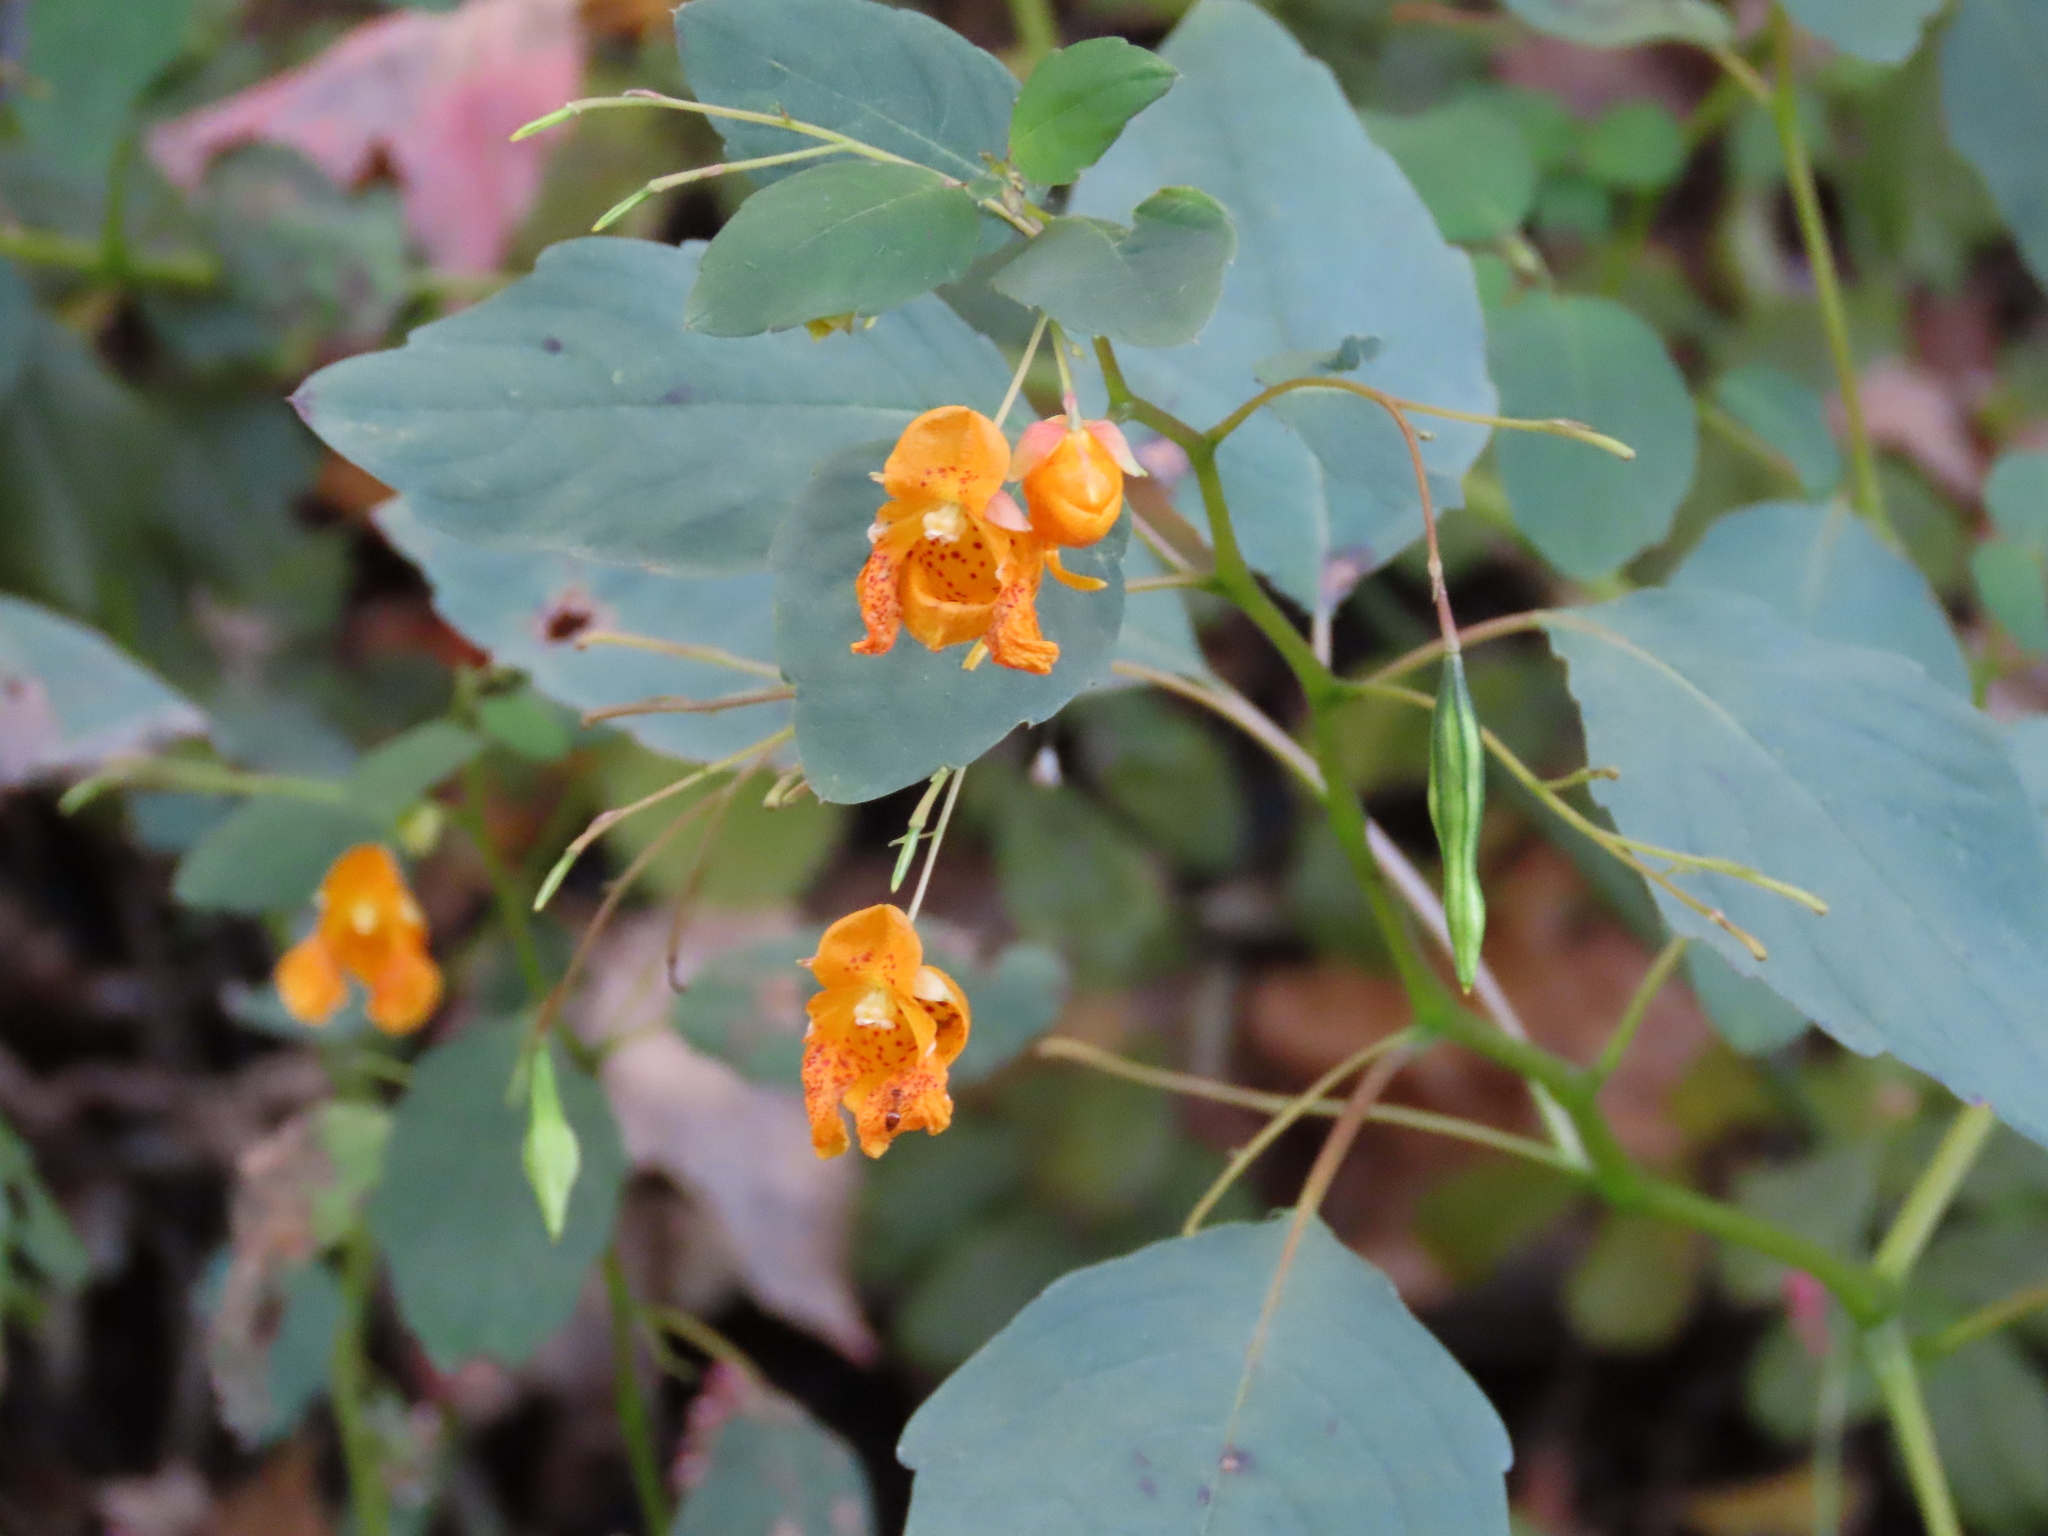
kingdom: Plantae
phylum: Tracheophyta
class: Magnoliopsida
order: Ericales
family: Balsaminaceae
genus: Impatiens
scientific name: Impatiens capensis
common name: Orange balsam
